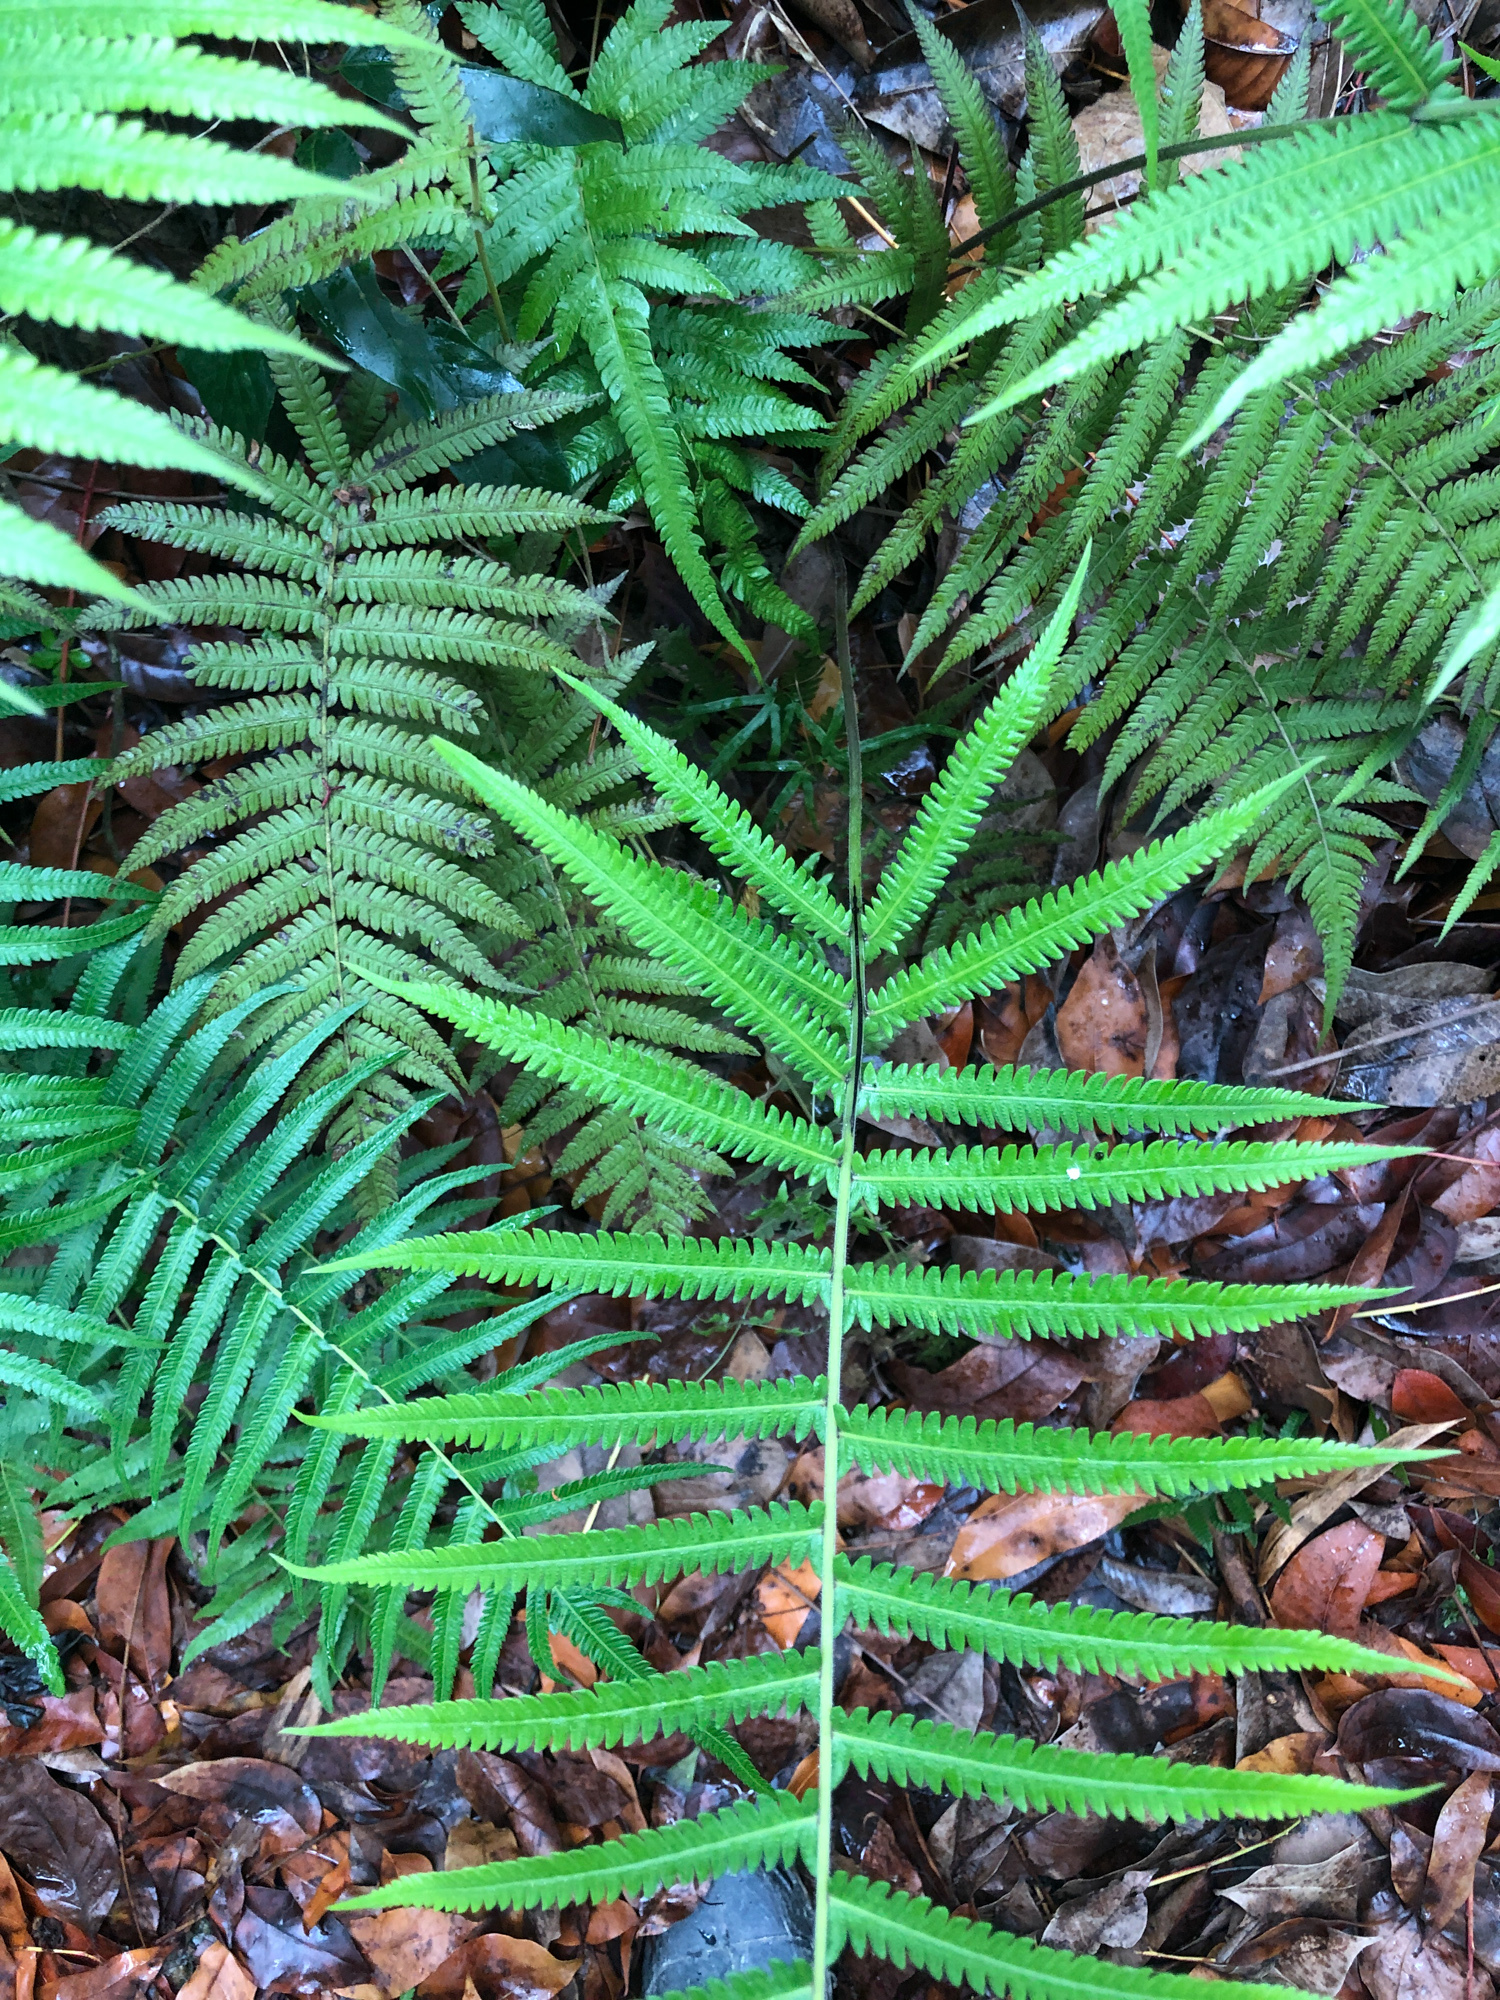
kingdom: Plantae
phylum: Tracheophyta
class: Polypodiopsida
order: Polypodiales
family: Thelypteridaceae
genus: Christella
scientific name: Christella acuminata
